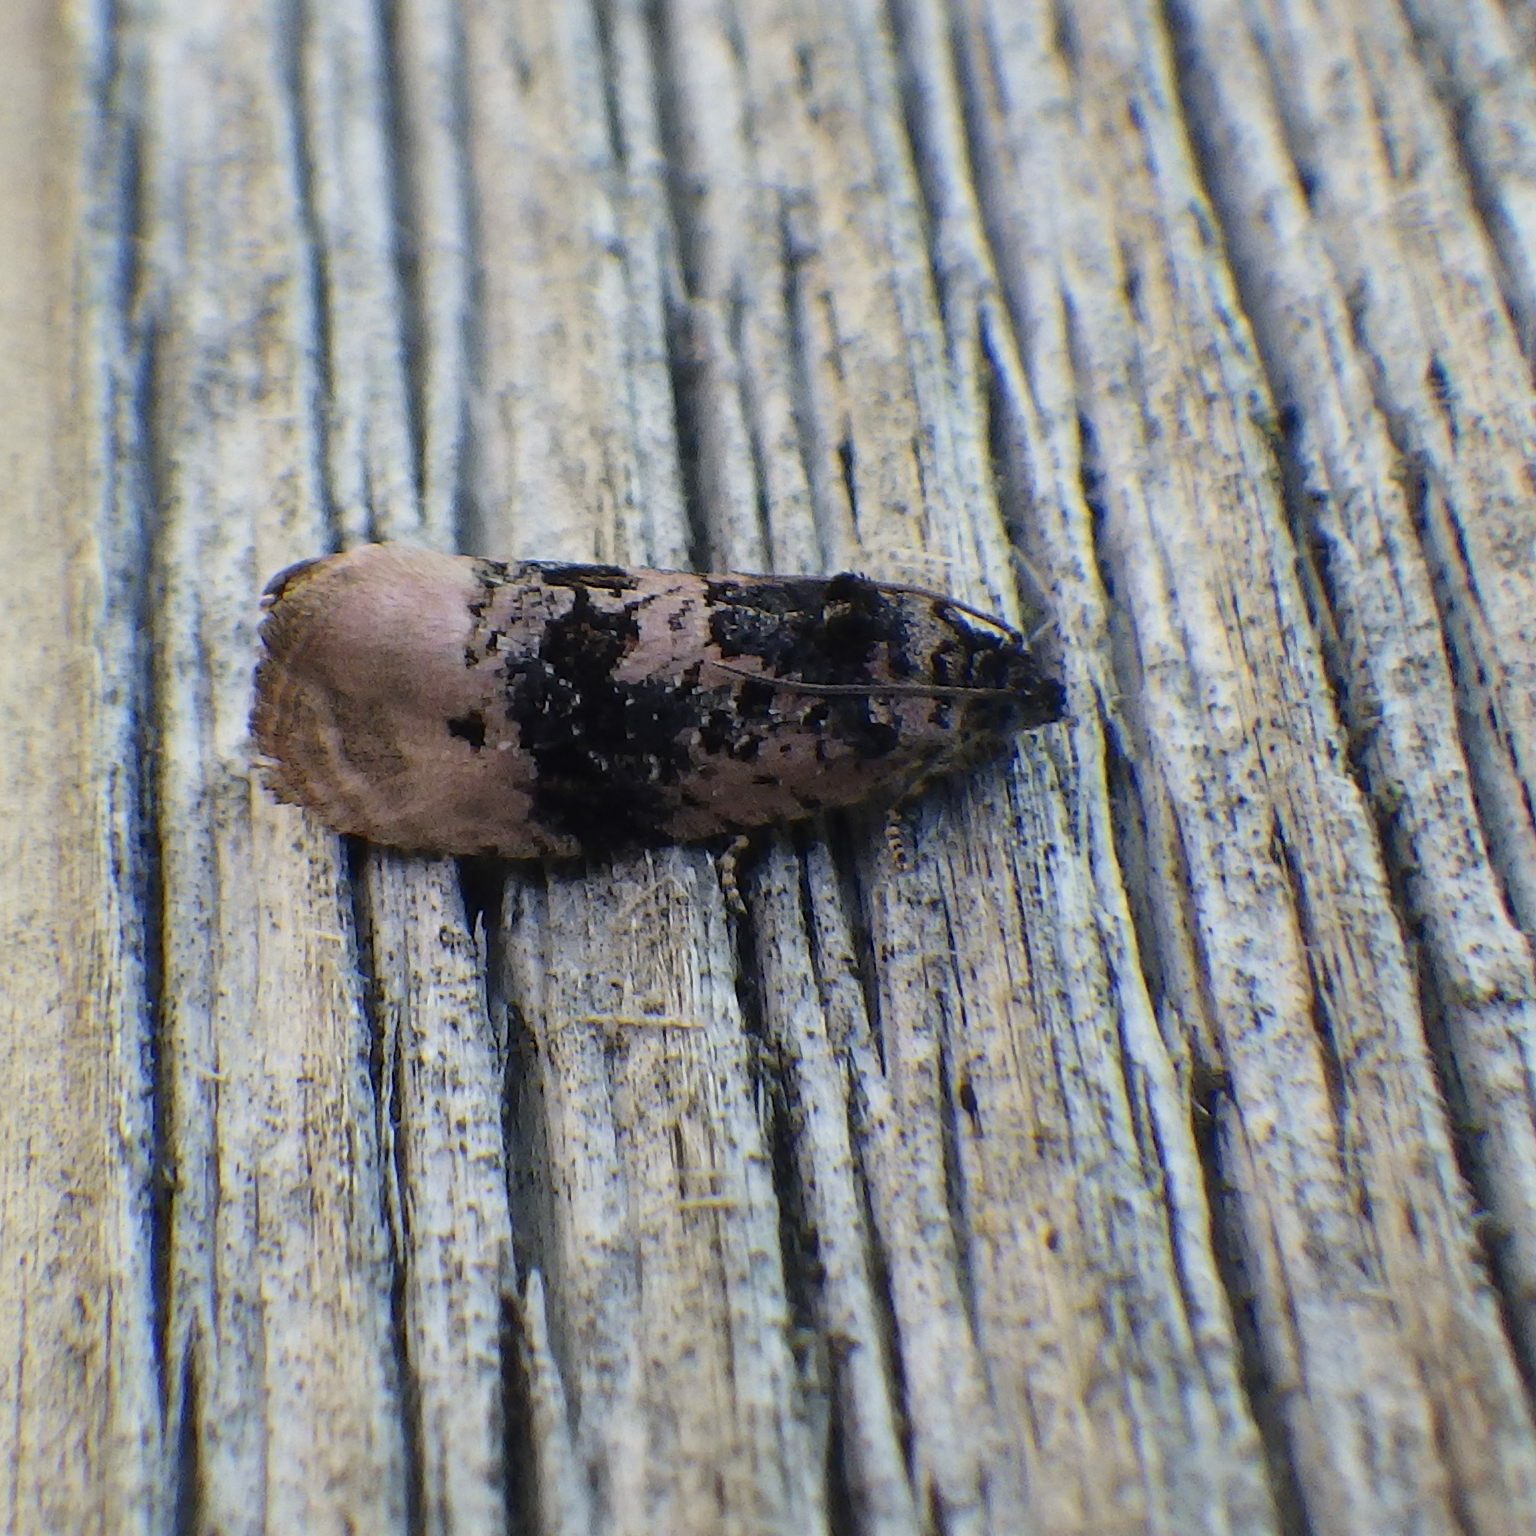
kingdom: Animalia
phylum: Arthropoda
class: Insecta
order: Lepidoptera
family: Tortricidae
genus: Hedya
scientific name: Hedya separatana
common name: Pink-washed leafroller moth
